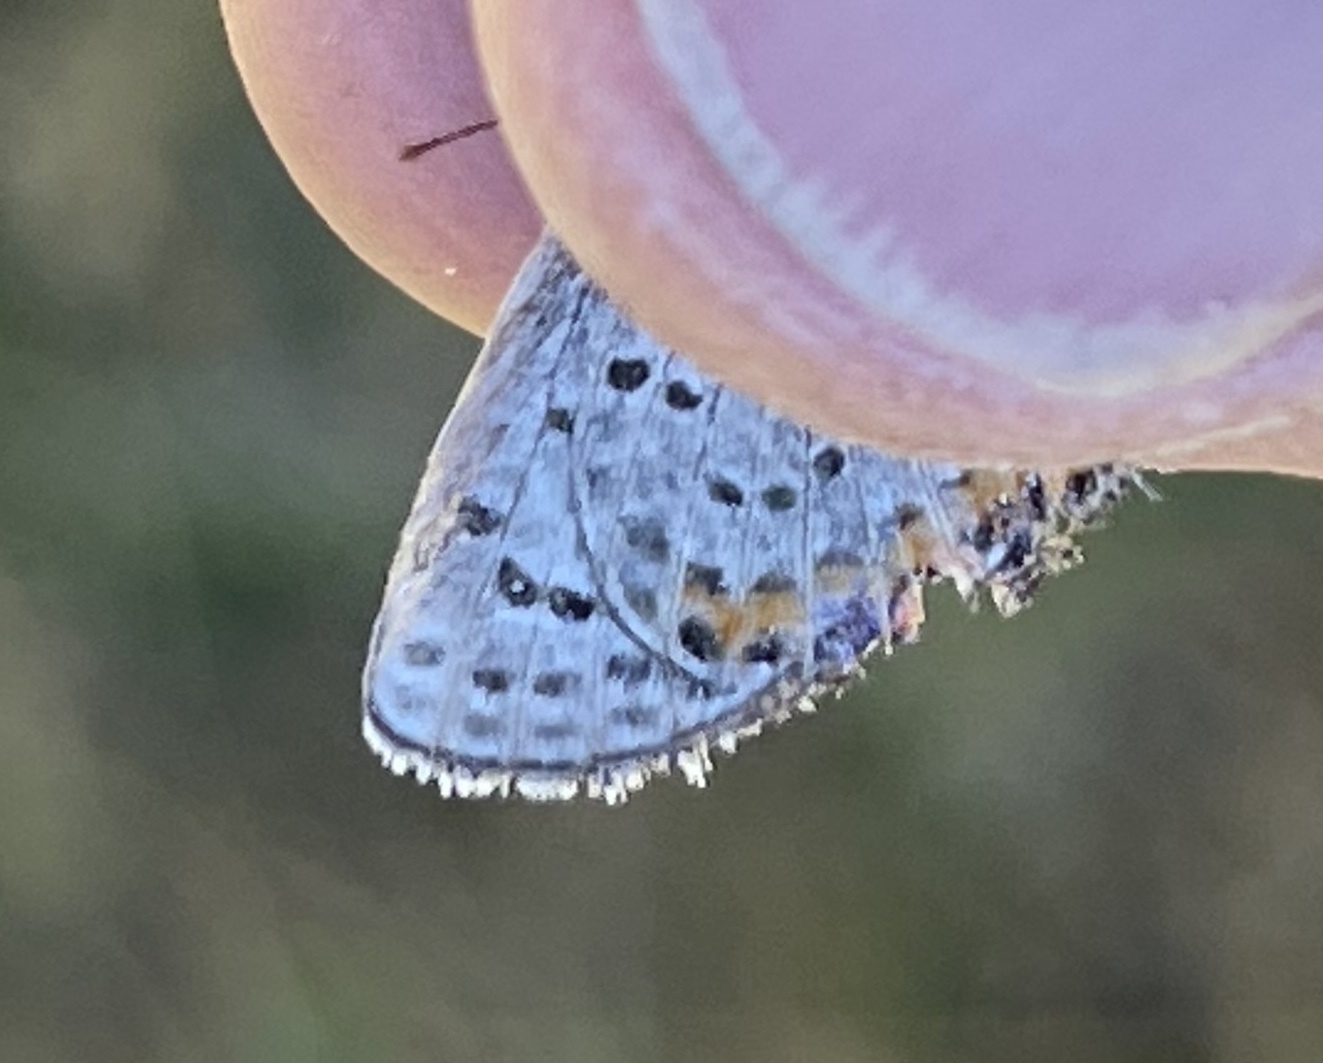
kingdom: Animalia
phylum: Arthropoda
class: Insecta
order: Lepidoptera
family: Lycaenidae
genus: Icaricia
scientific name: Icaricia acmon
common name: Acmon blue
